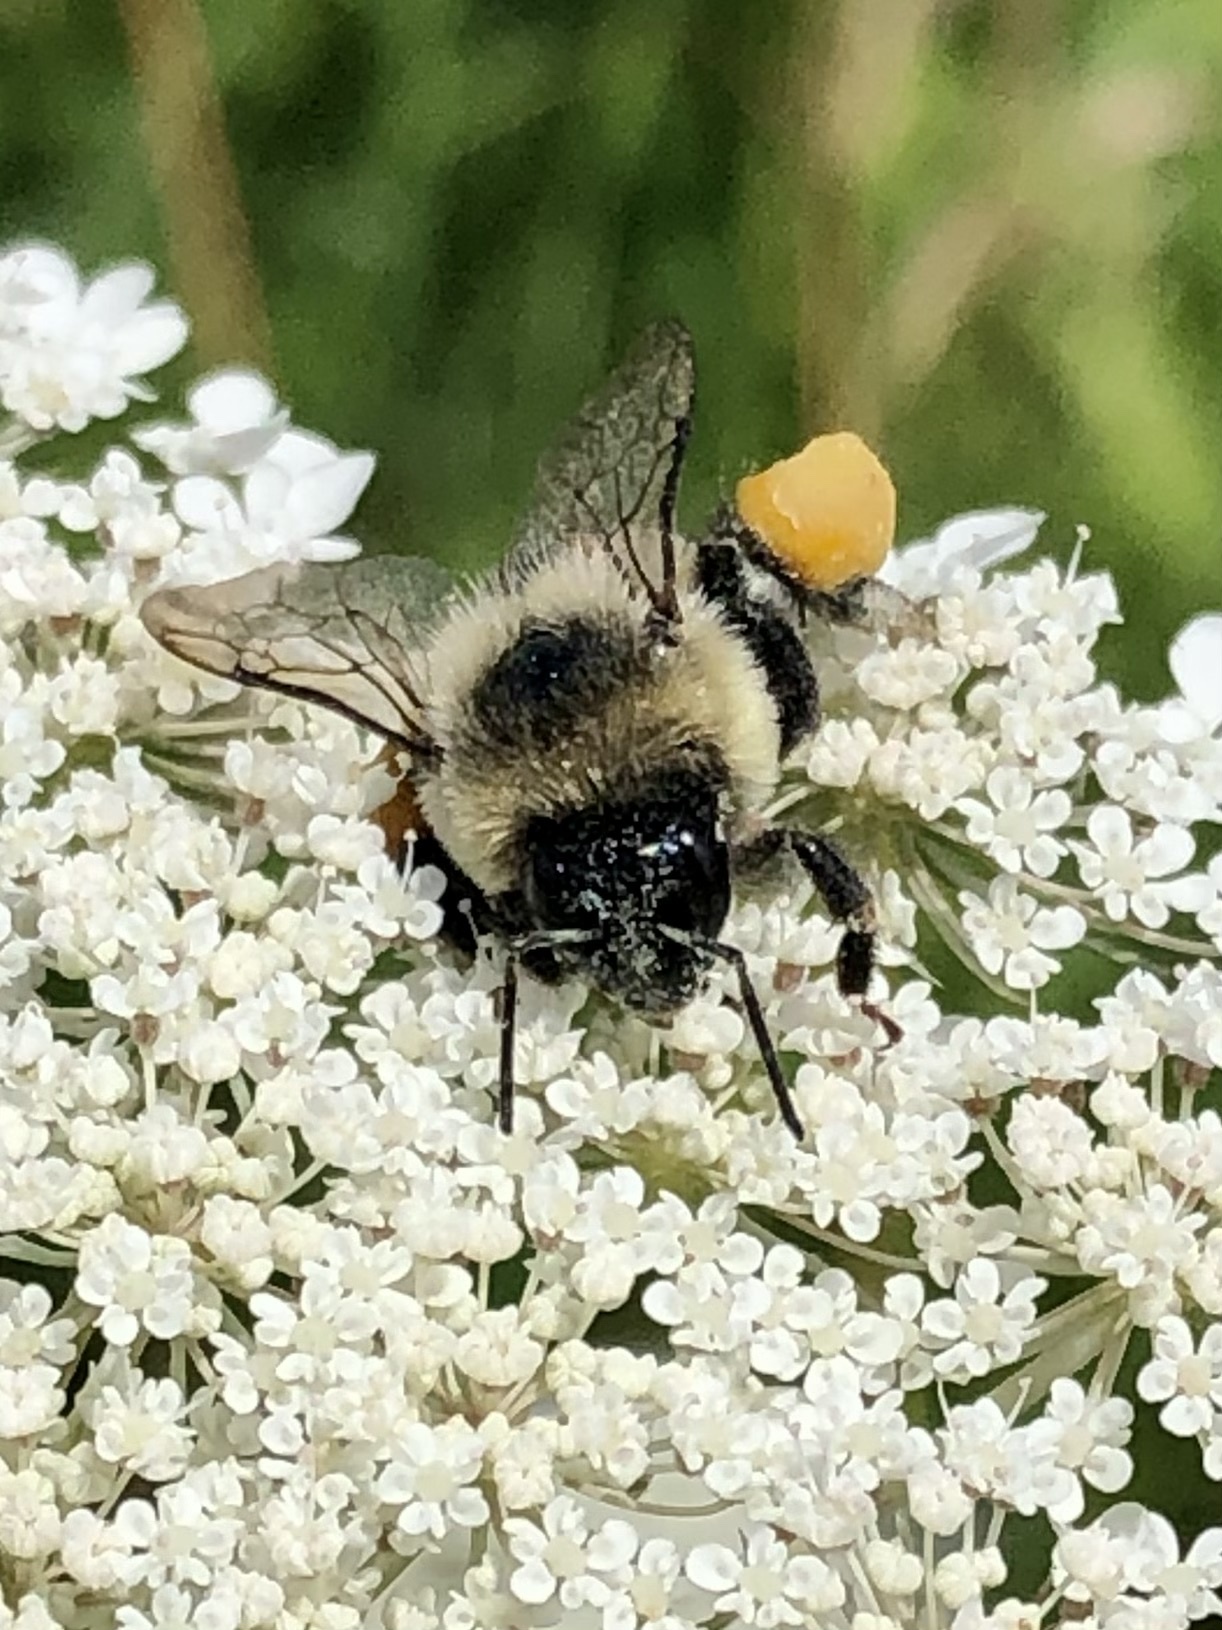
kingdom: Animalia
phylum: Arthropoda
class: Insecta
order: Hymenoptera
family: Apidae
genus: Bombus
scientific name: Bombus impatiens
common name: Common eastern bumble bee
